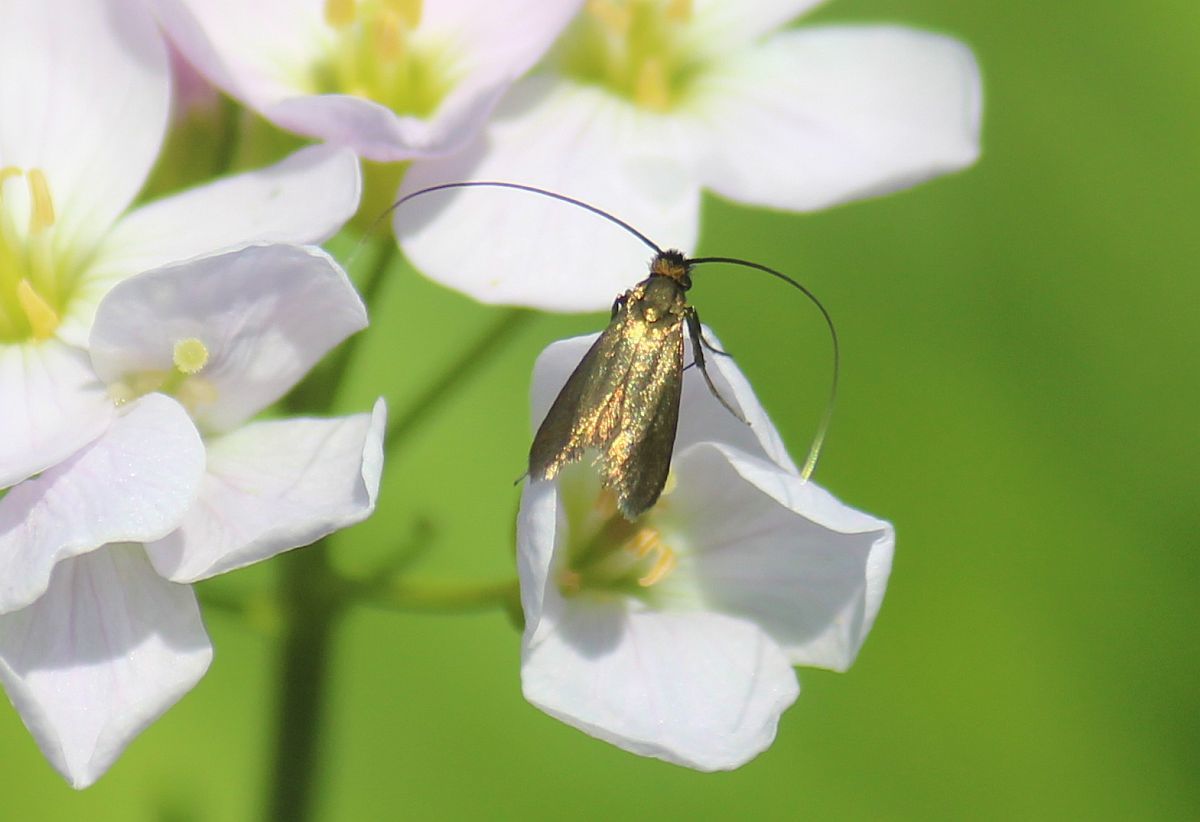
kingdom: Animalia
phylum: Arthropoda
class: Insecta
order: Lepidoptera
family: Adelidae
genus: Cauchas
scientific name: Cauchas rufimitrella
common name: Meadow long-horn
